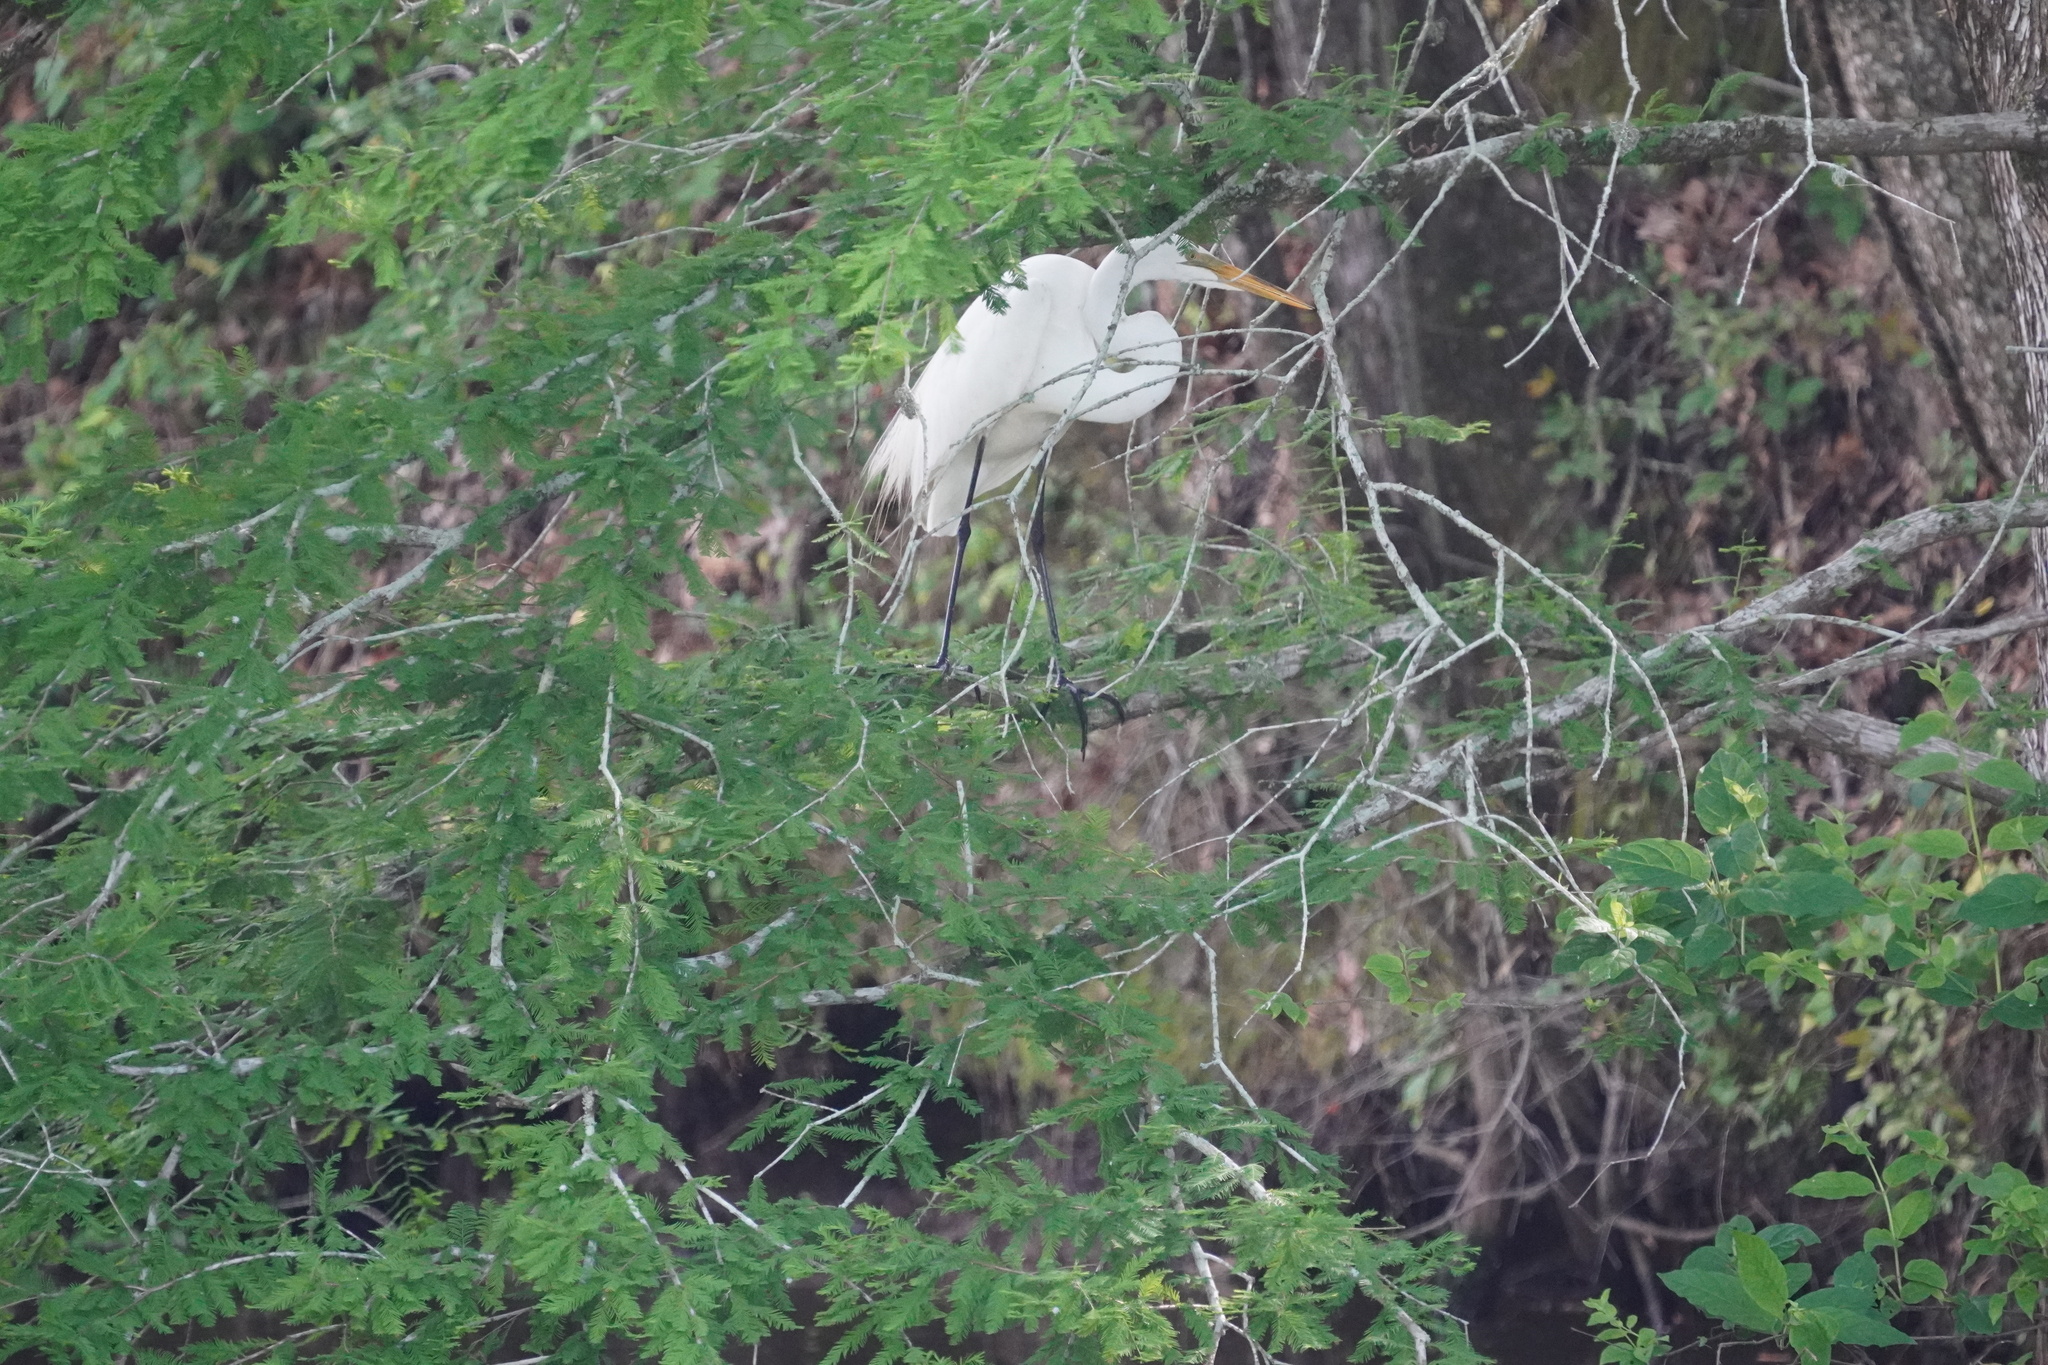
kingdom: Animalia
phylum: Chordata
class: Aves
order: Pelecaniformes
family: Ardeidae
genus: Ardea
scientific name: Ardea alba
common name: Great egret
